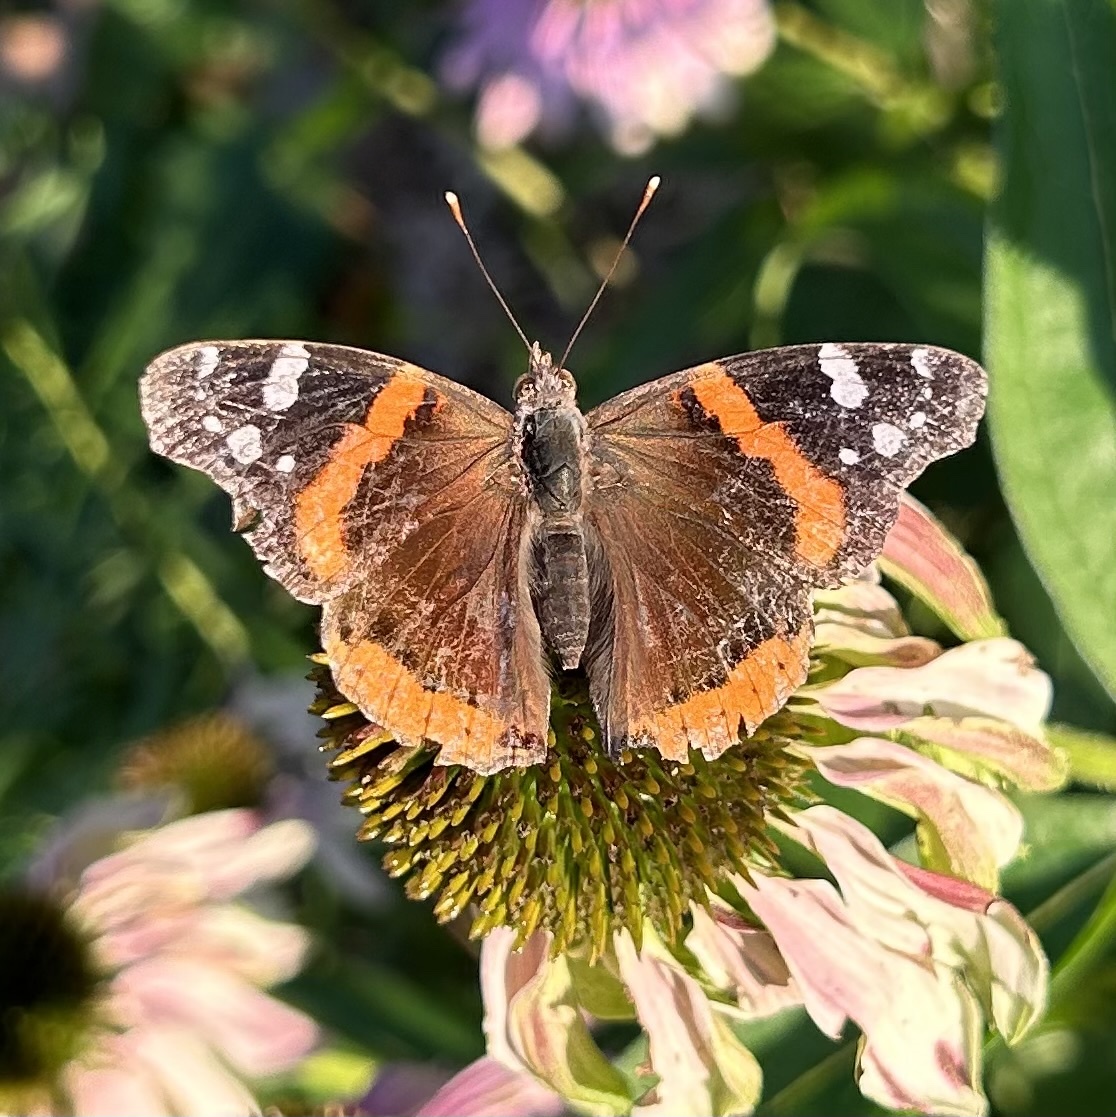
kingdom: Animalia
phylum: Arthropoda
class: Insecta
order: Lepidoptera
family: Nymphalidae
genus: Vanessa
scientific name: Vanessa atalanta
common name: Red admiral
